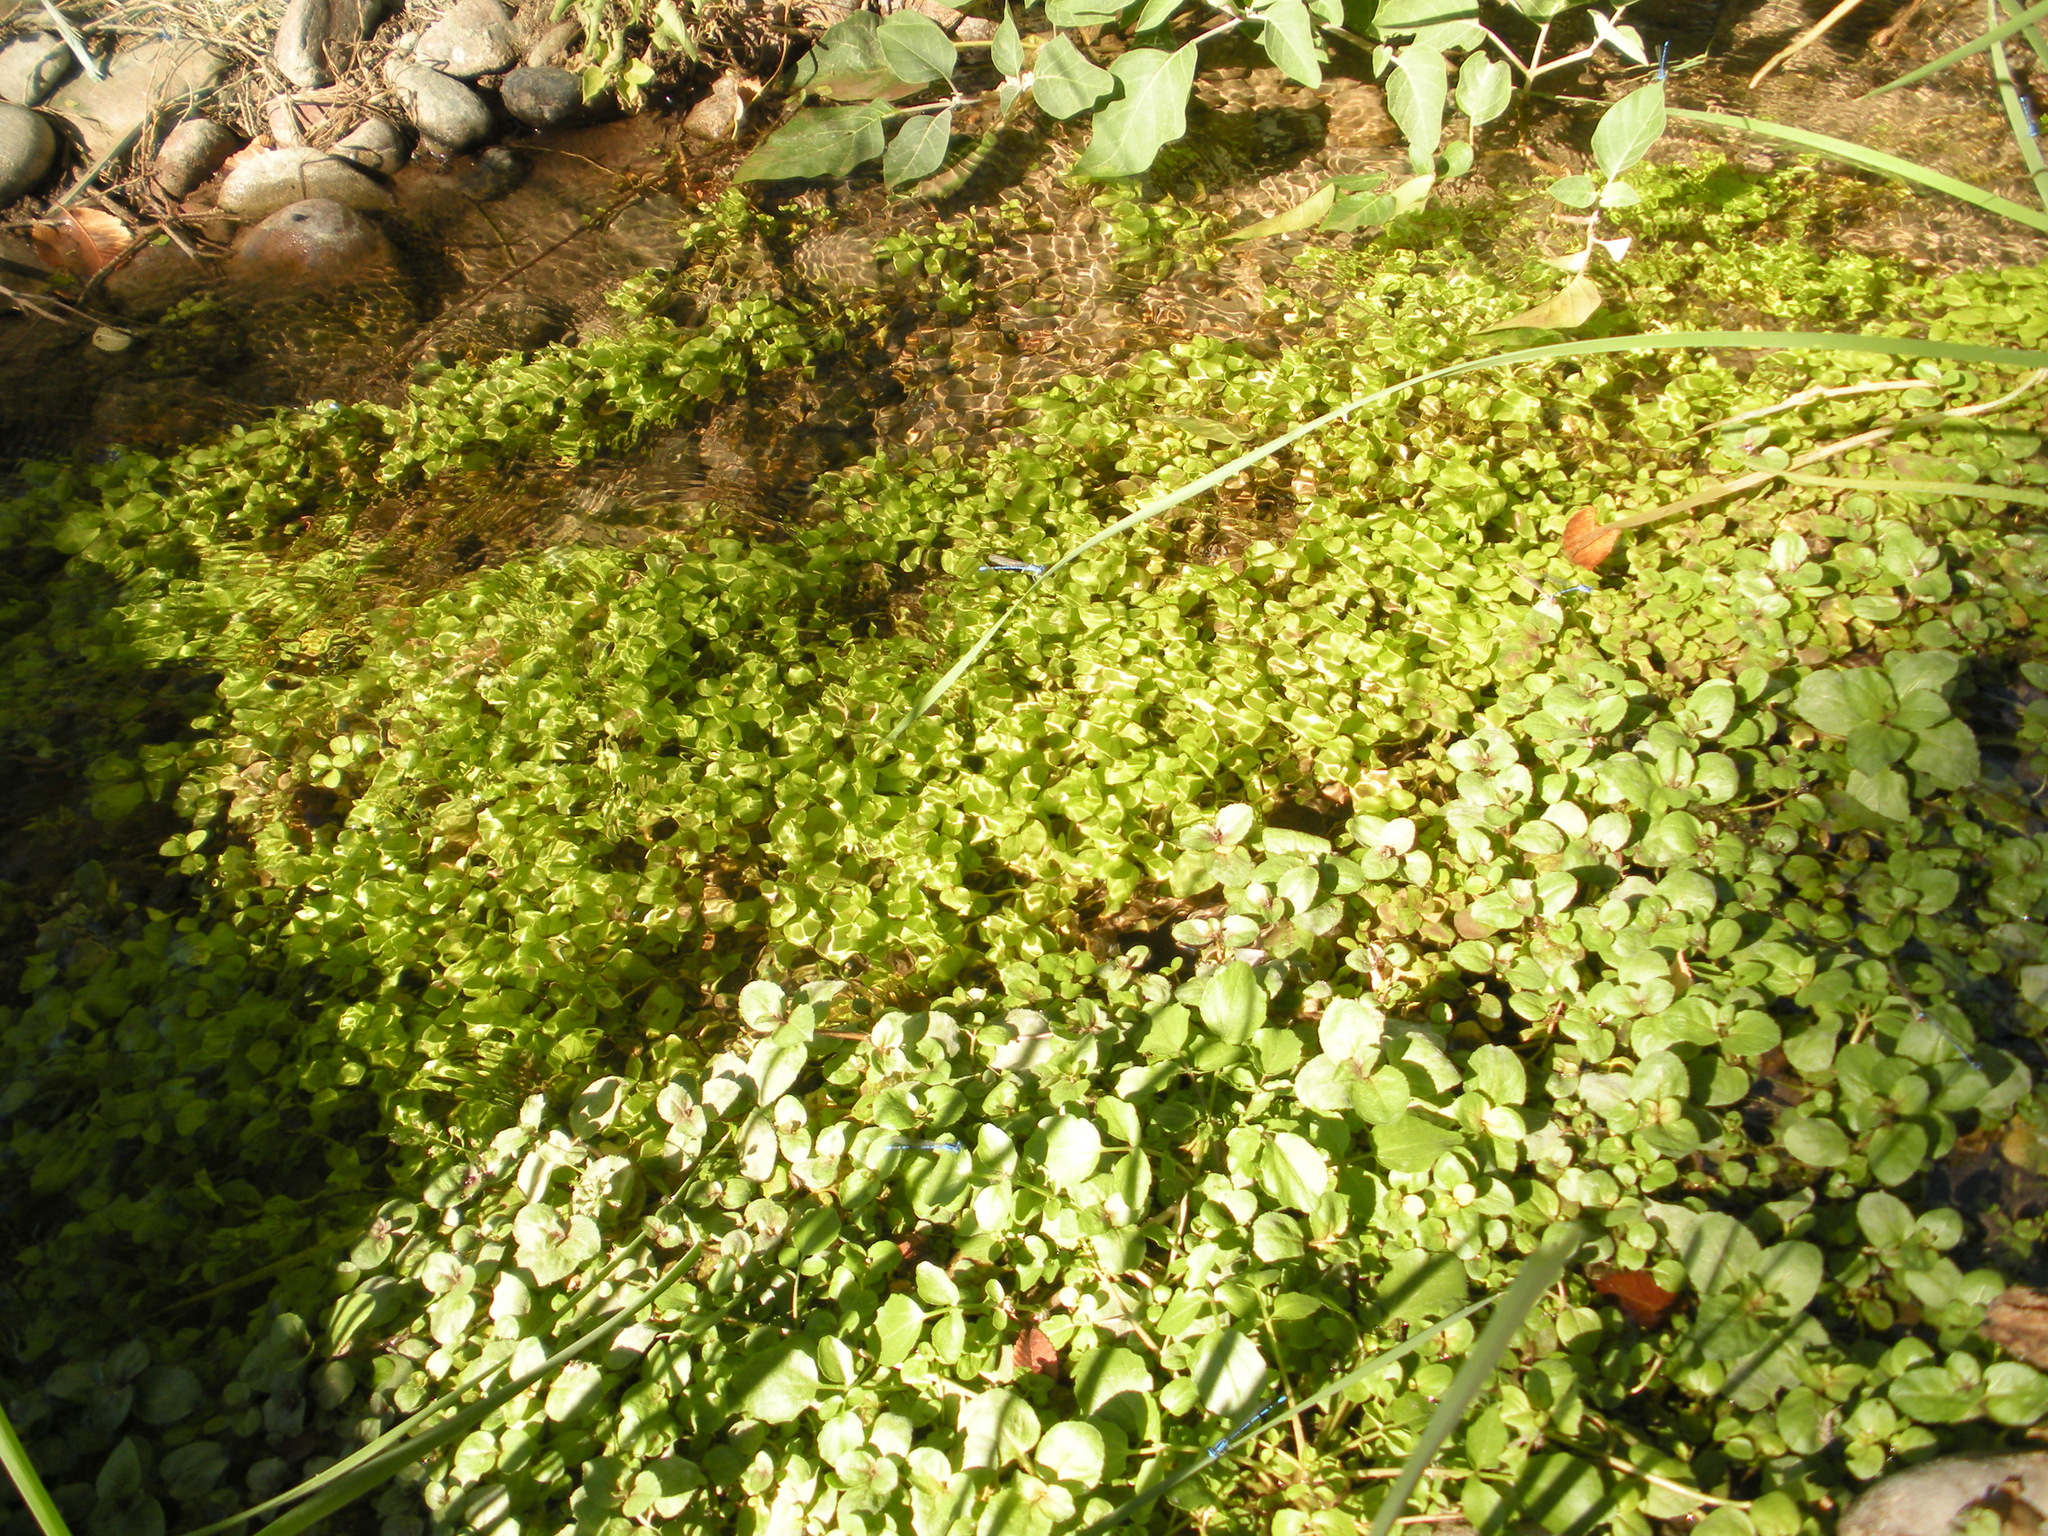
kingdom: Plantae
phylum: Tracheophyta
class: Magnoliopsida
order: Brassicales
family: Brassicaceae
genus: Nasturtium
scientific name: Nasturtium officinale
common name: Watercress
